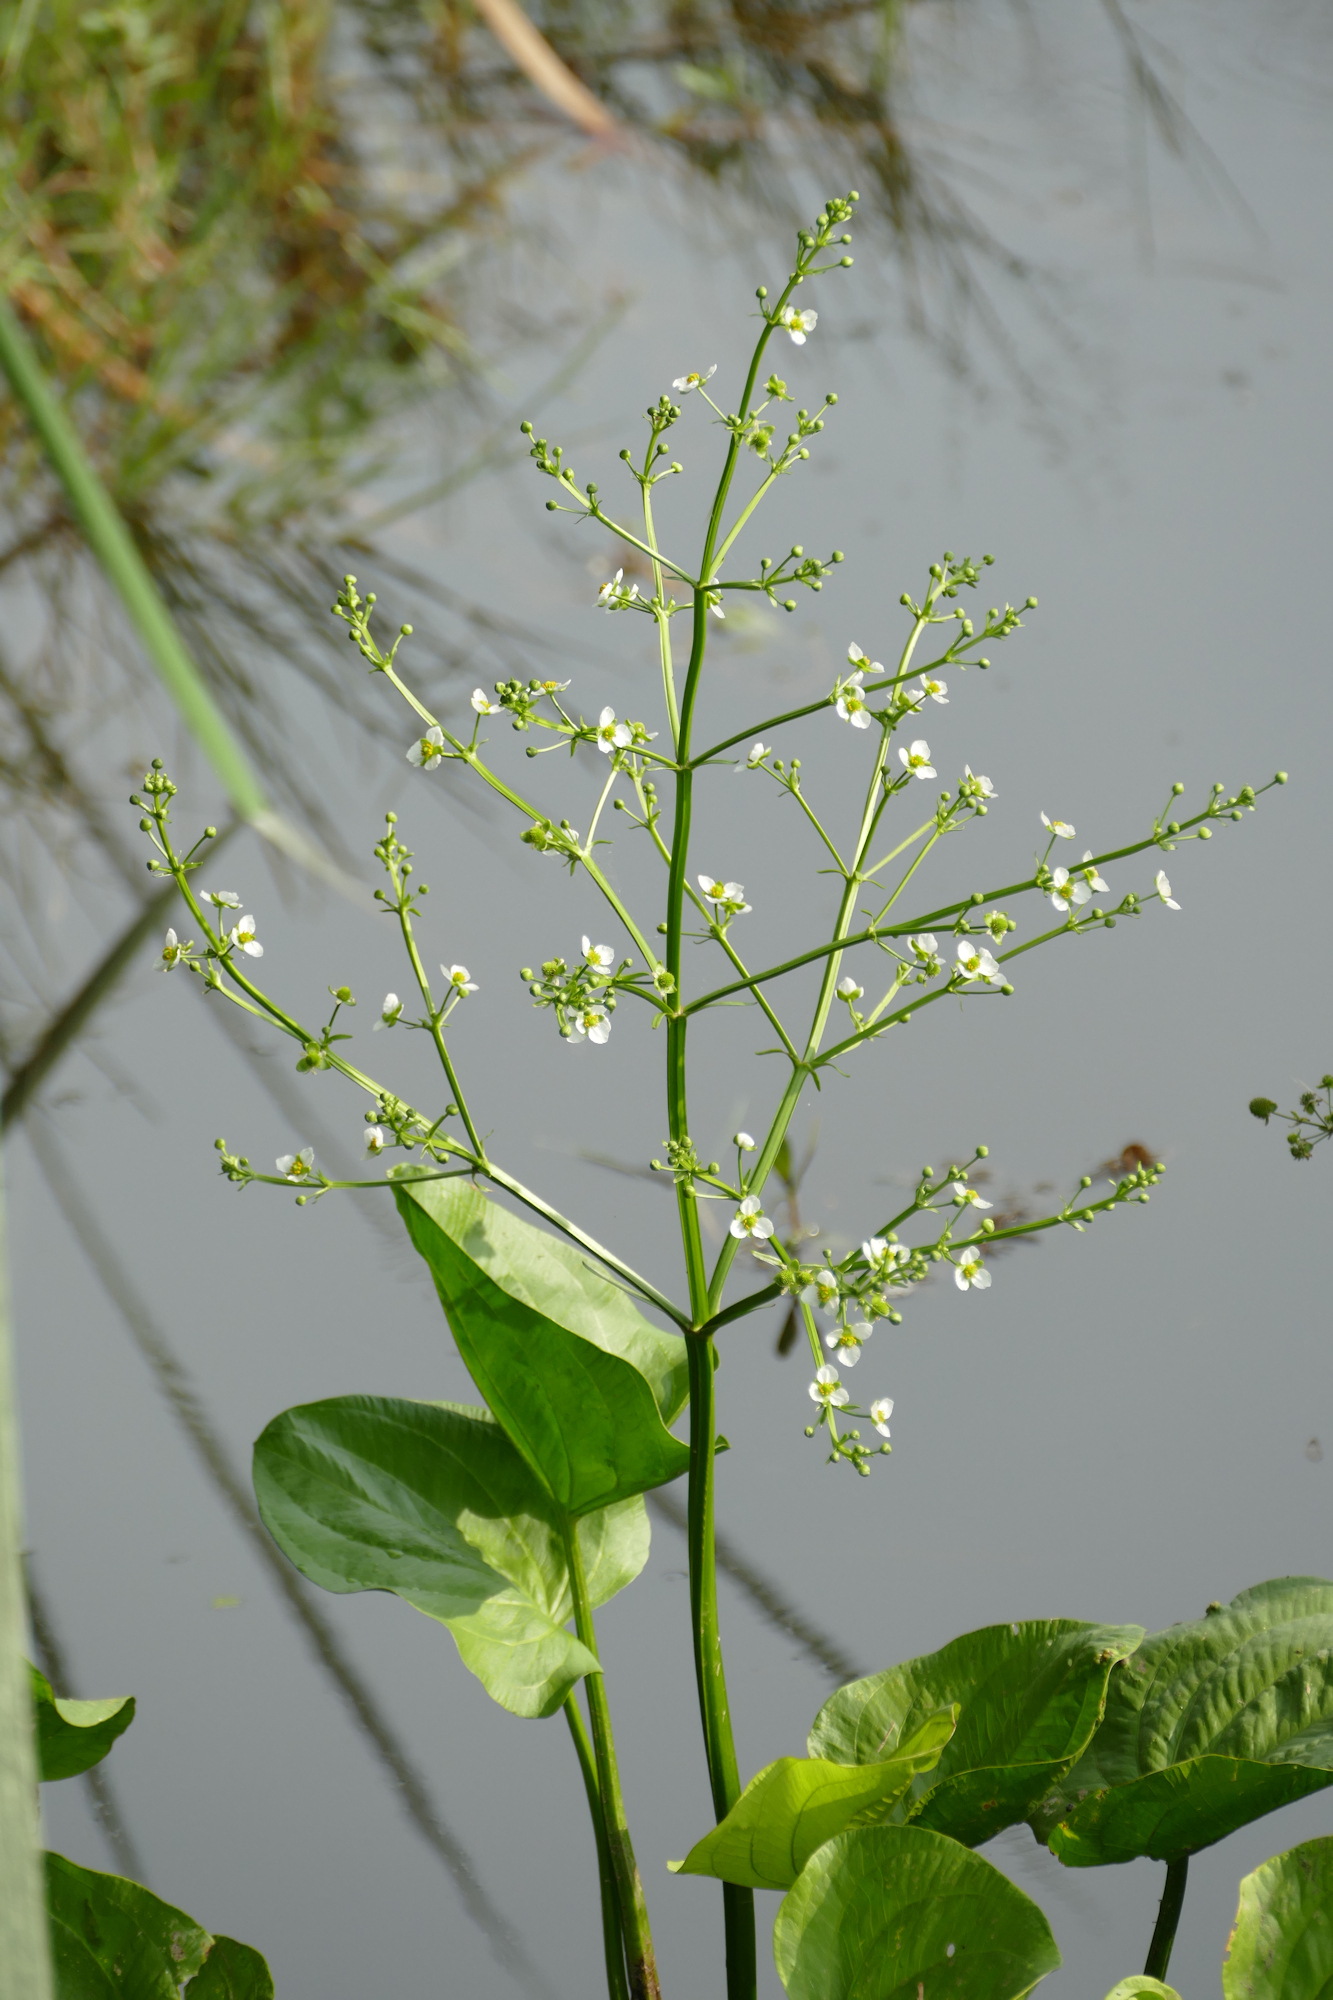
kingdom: Plantae
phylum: Tracheophyta
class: Liliopsida
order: Alismatales
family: Alismataceae
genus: Echinodorus
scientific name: Echinodorus berteroi
